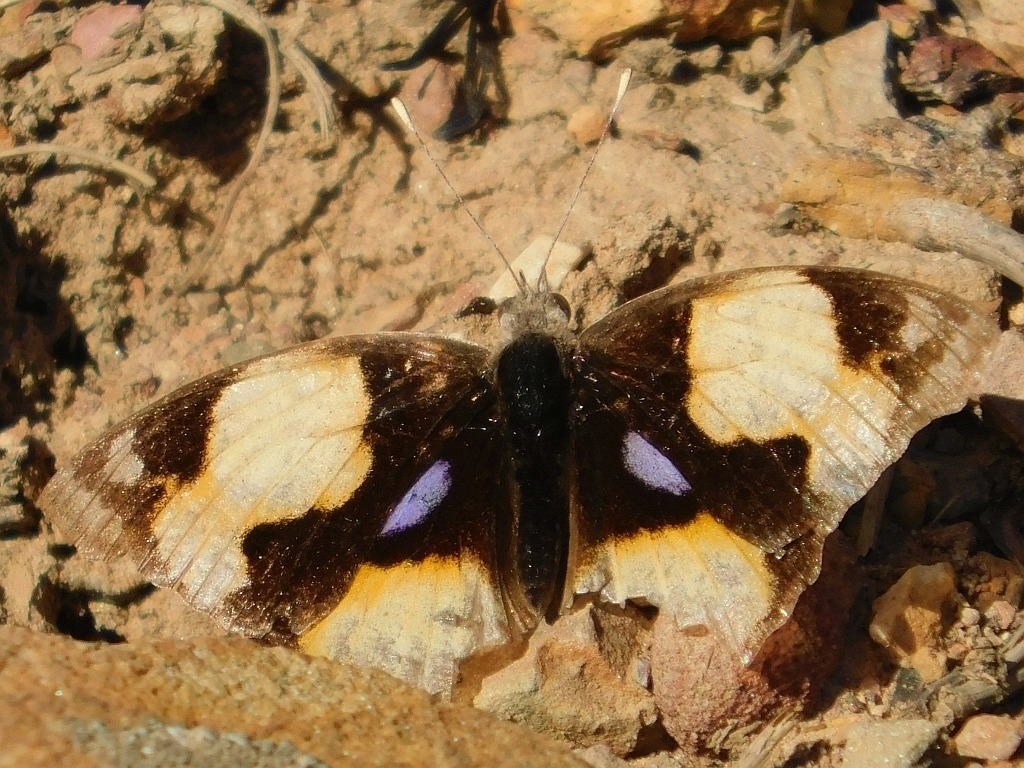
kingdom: Animalia
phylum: Arthropoda
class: Insecta
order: Lepidoptera
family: Nymphalidae
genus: Junonia
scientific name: Junonia hierta
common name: Yellow pansy
